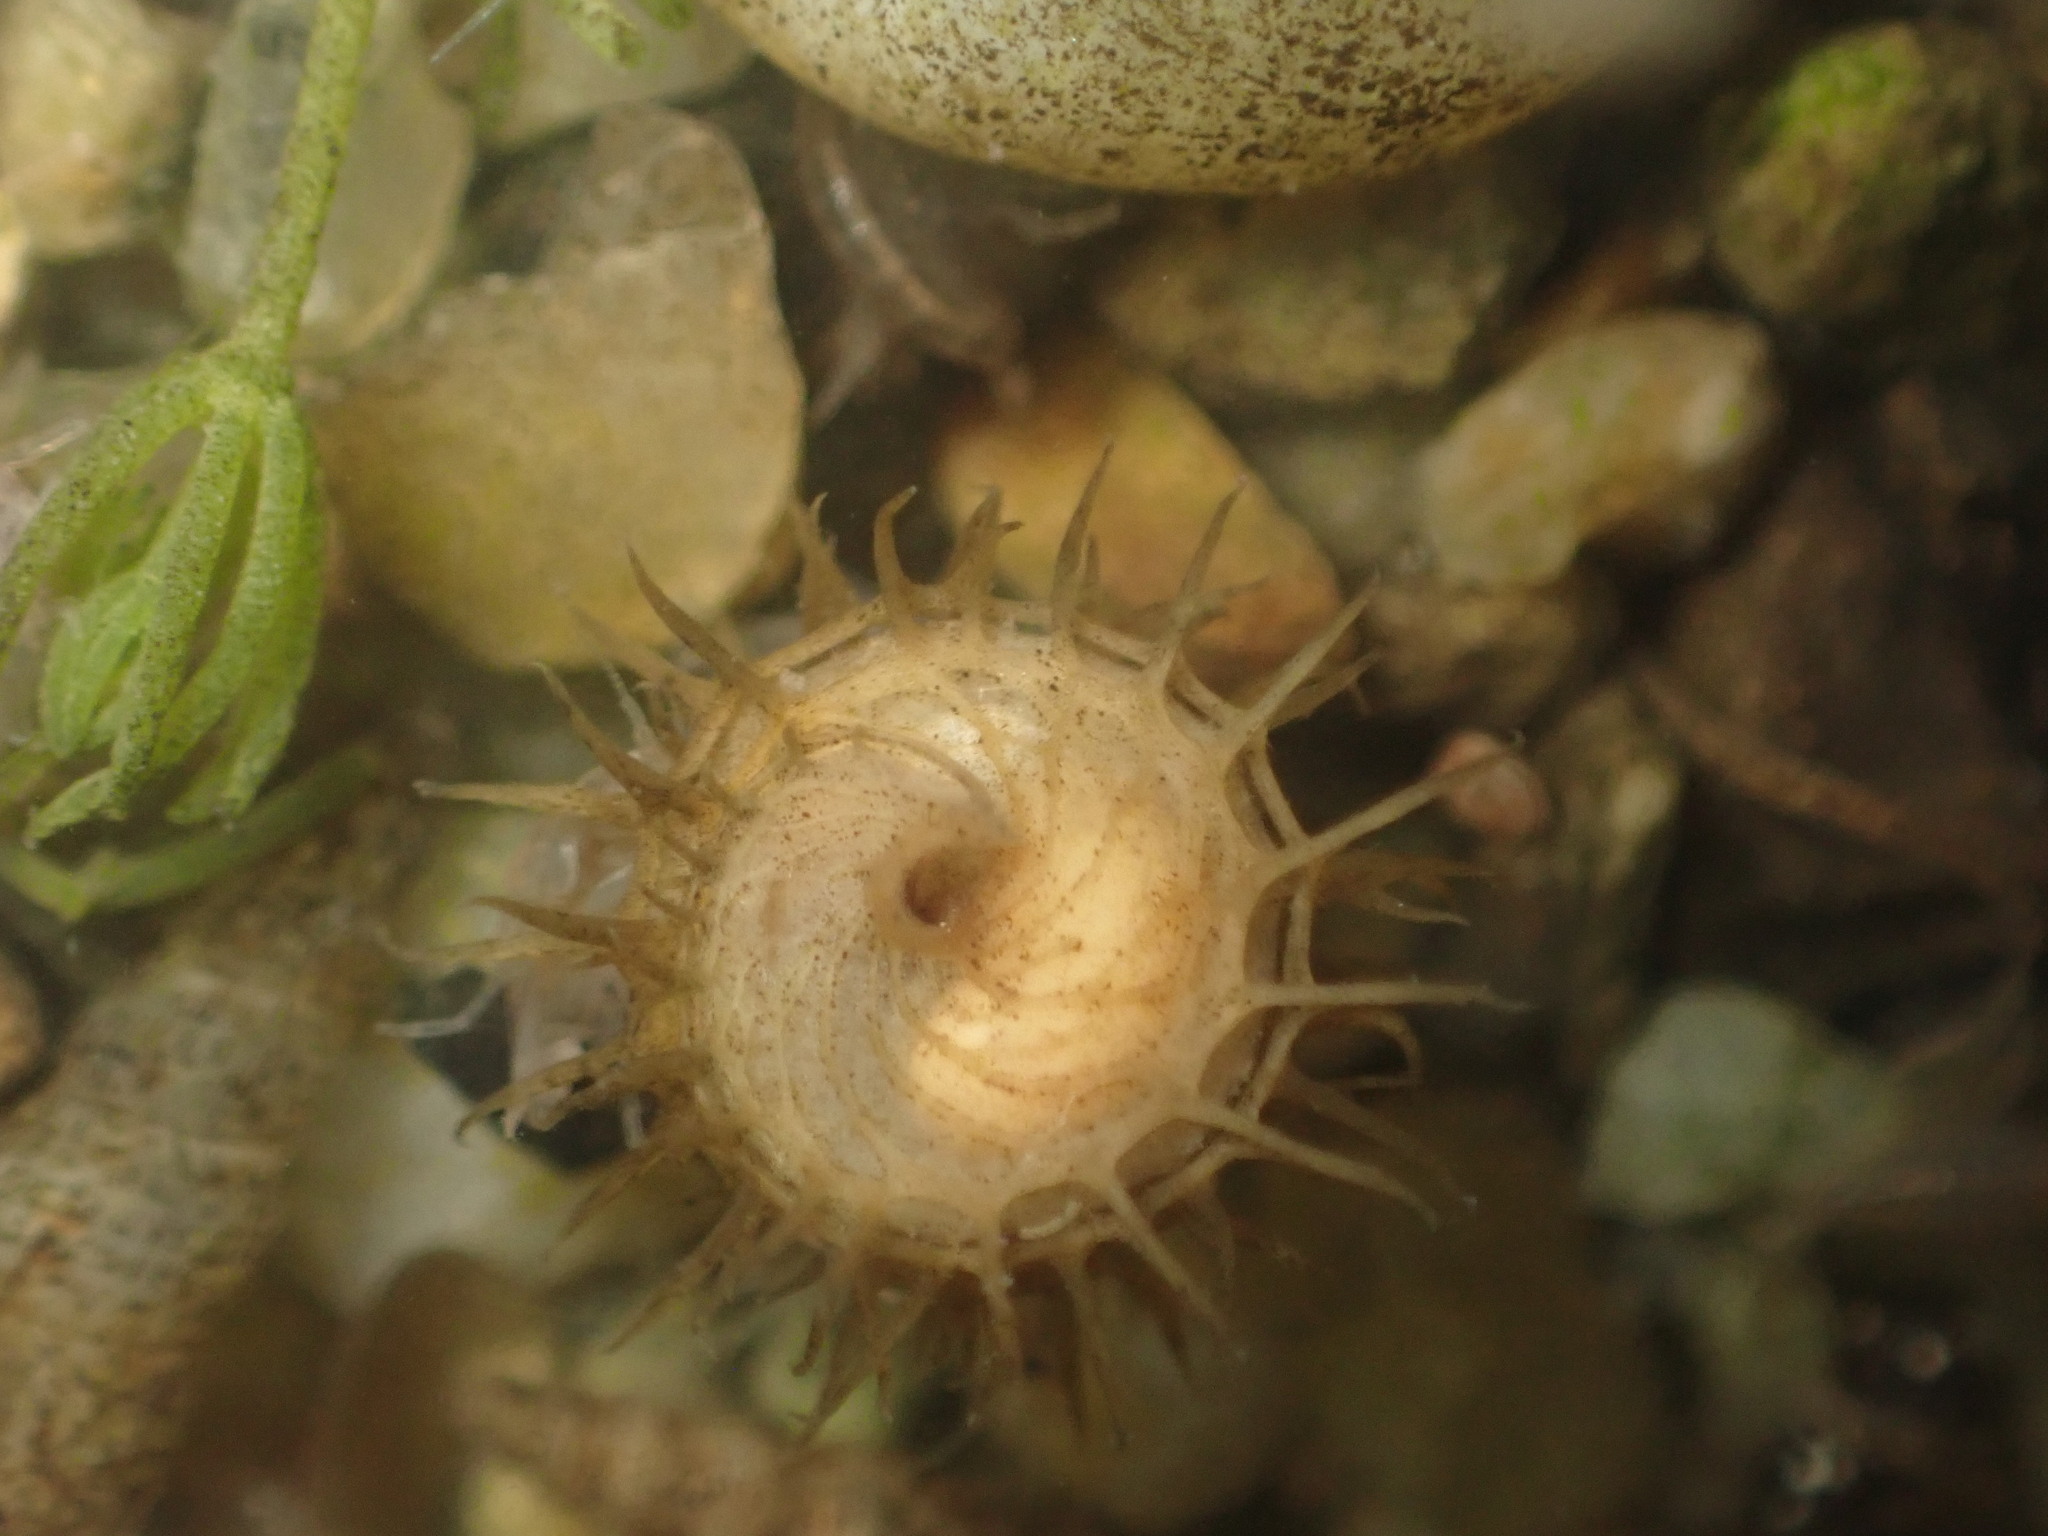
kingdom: Plantae
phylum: Tracheophyta
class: Magnoliopsida
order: Fabales
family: Fabaceae
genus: Medicago
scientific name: Medicago polymorpha
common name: Burclover
